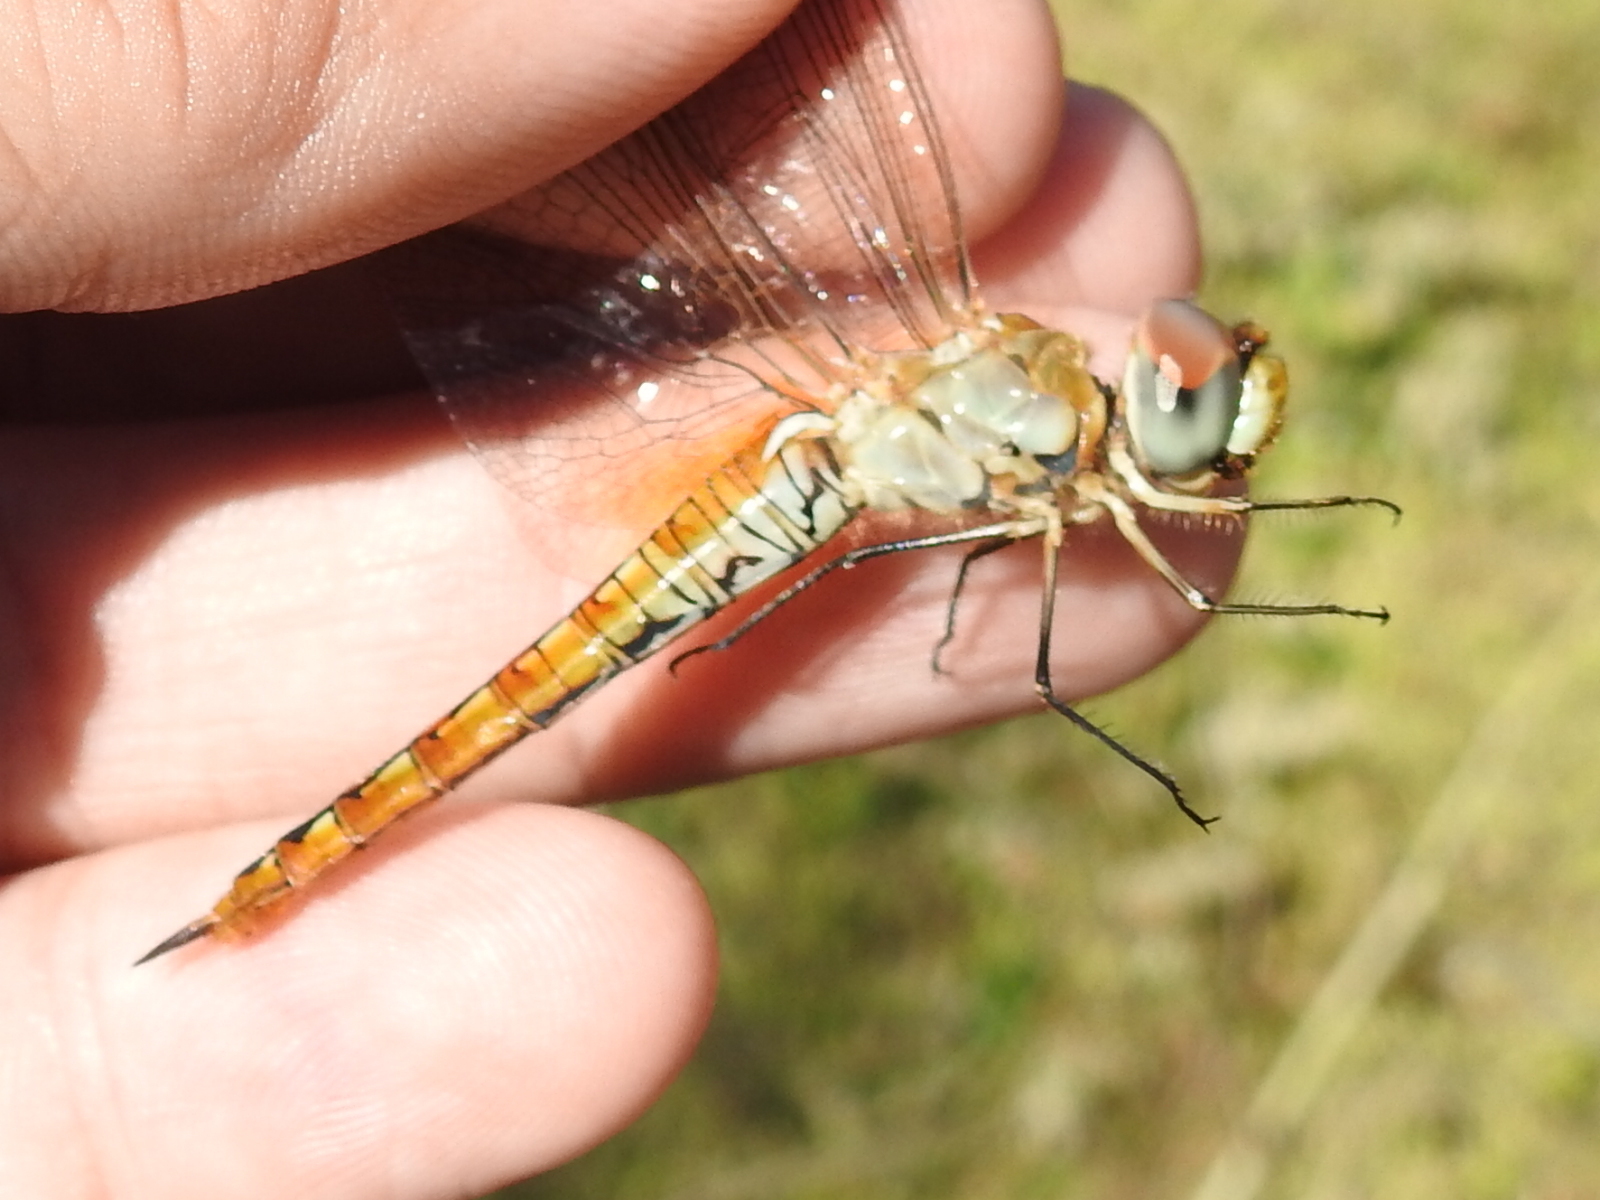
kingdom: Animalia
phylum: Arthropoda
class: Insecta
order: Odonata
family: Libellulidae
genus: Pantala
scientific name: Pantala flavescens
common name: Wandering glider
